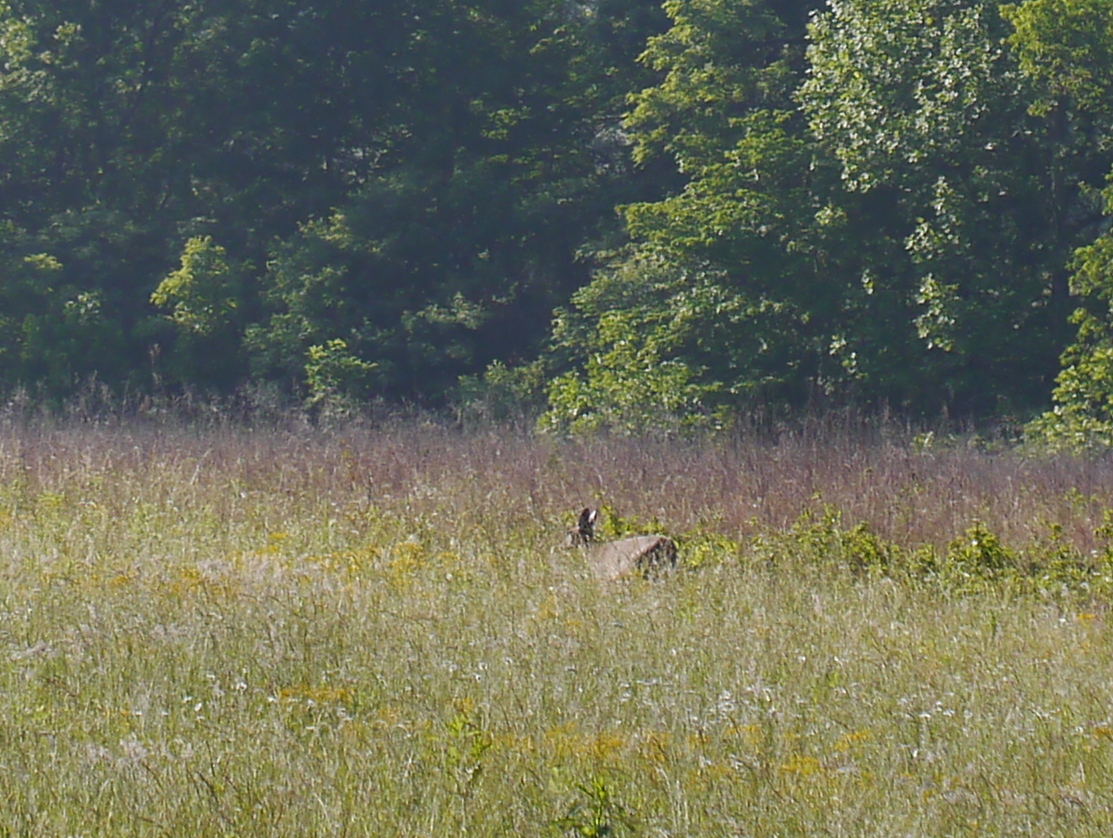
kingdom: Animalia
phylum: Chordata
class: Mammalia
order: Artiodactyla
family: Cervidae
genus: Odocoileus
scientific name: Odocoileus virginianus
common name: White-tailed deer
